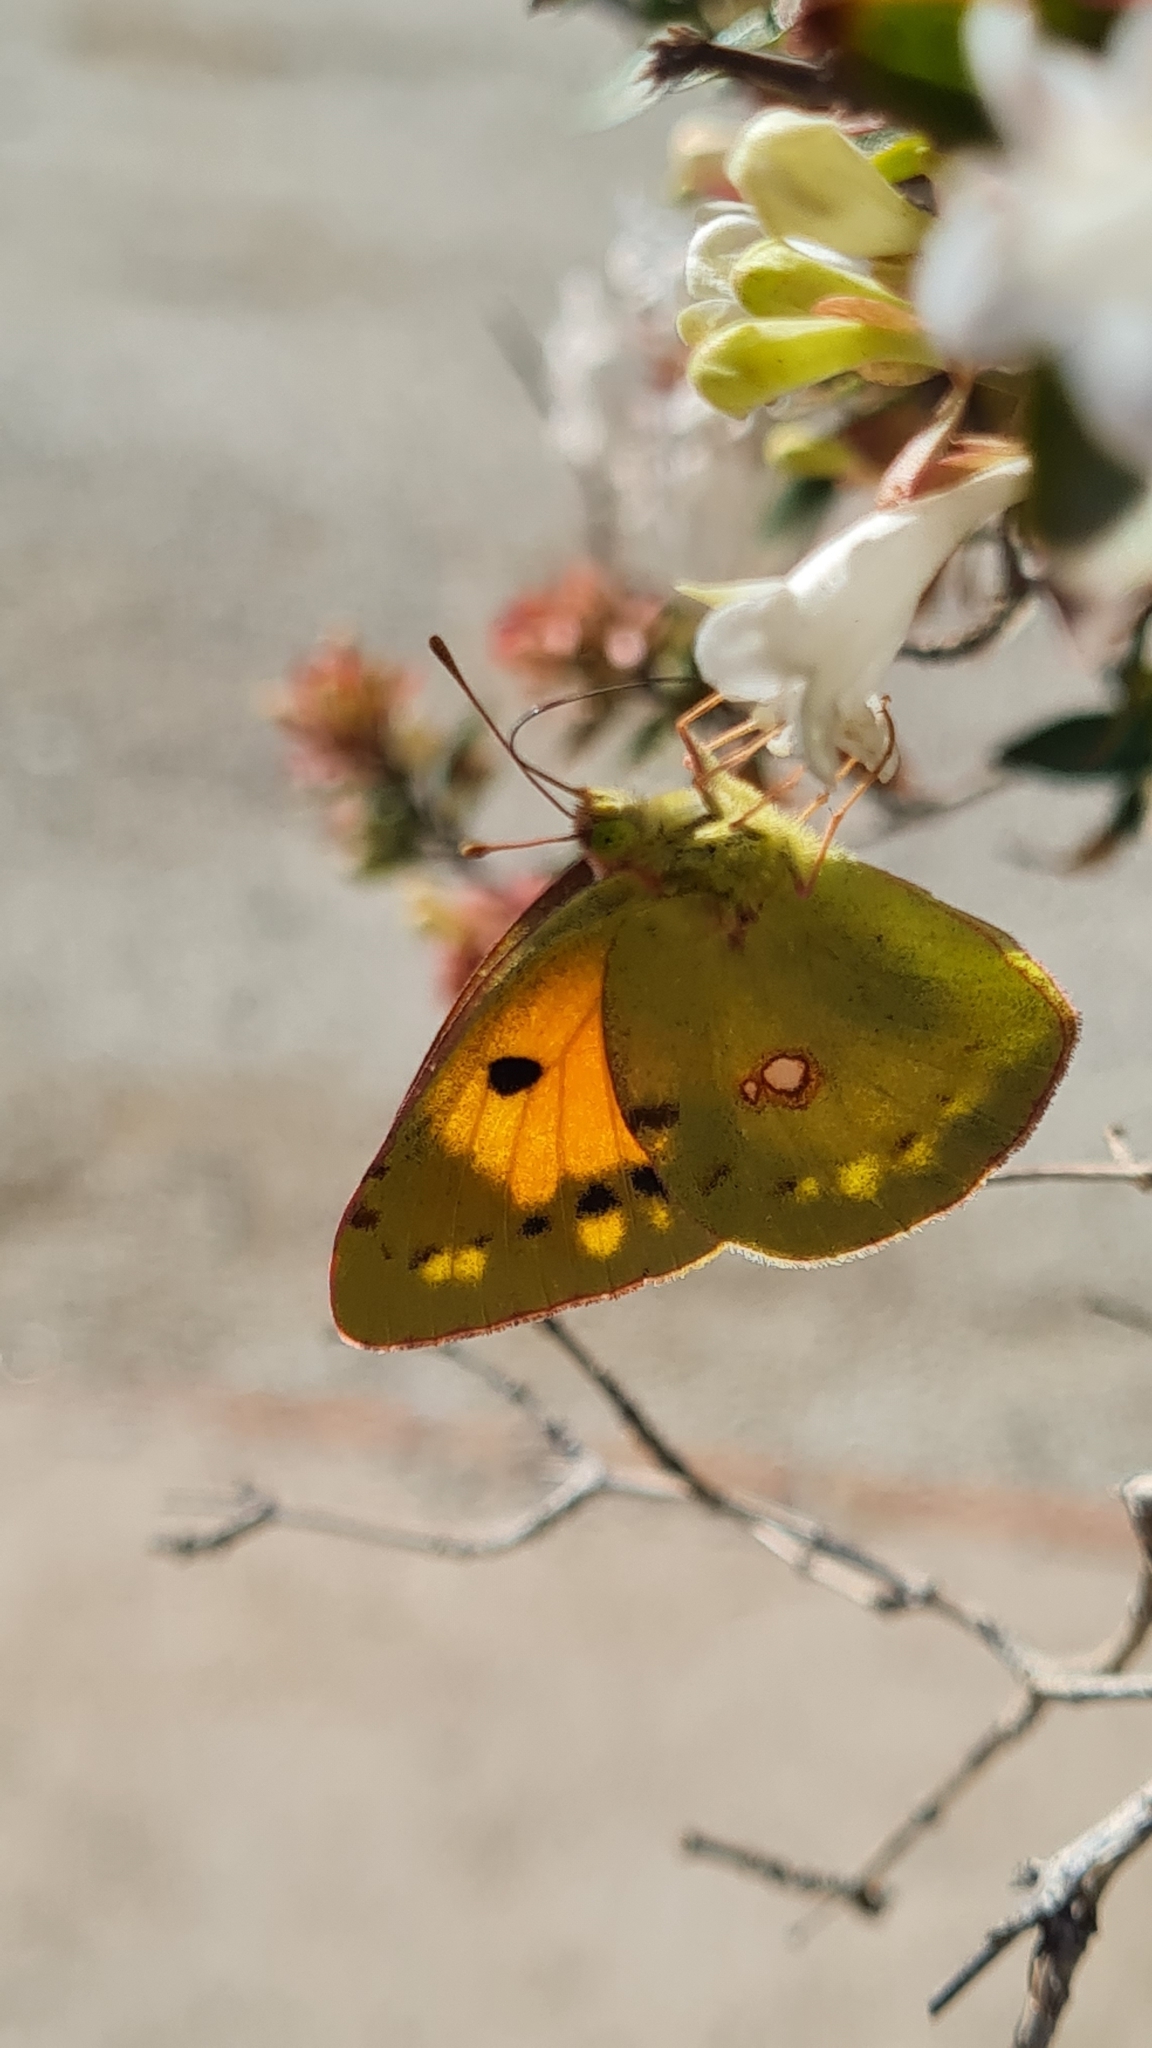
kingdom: Animalia
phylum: Arthropoda
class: Insecta
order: Lepidoptera
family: Pieridae
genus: Colias
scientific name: Colias croceus
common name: Clouded yellow
